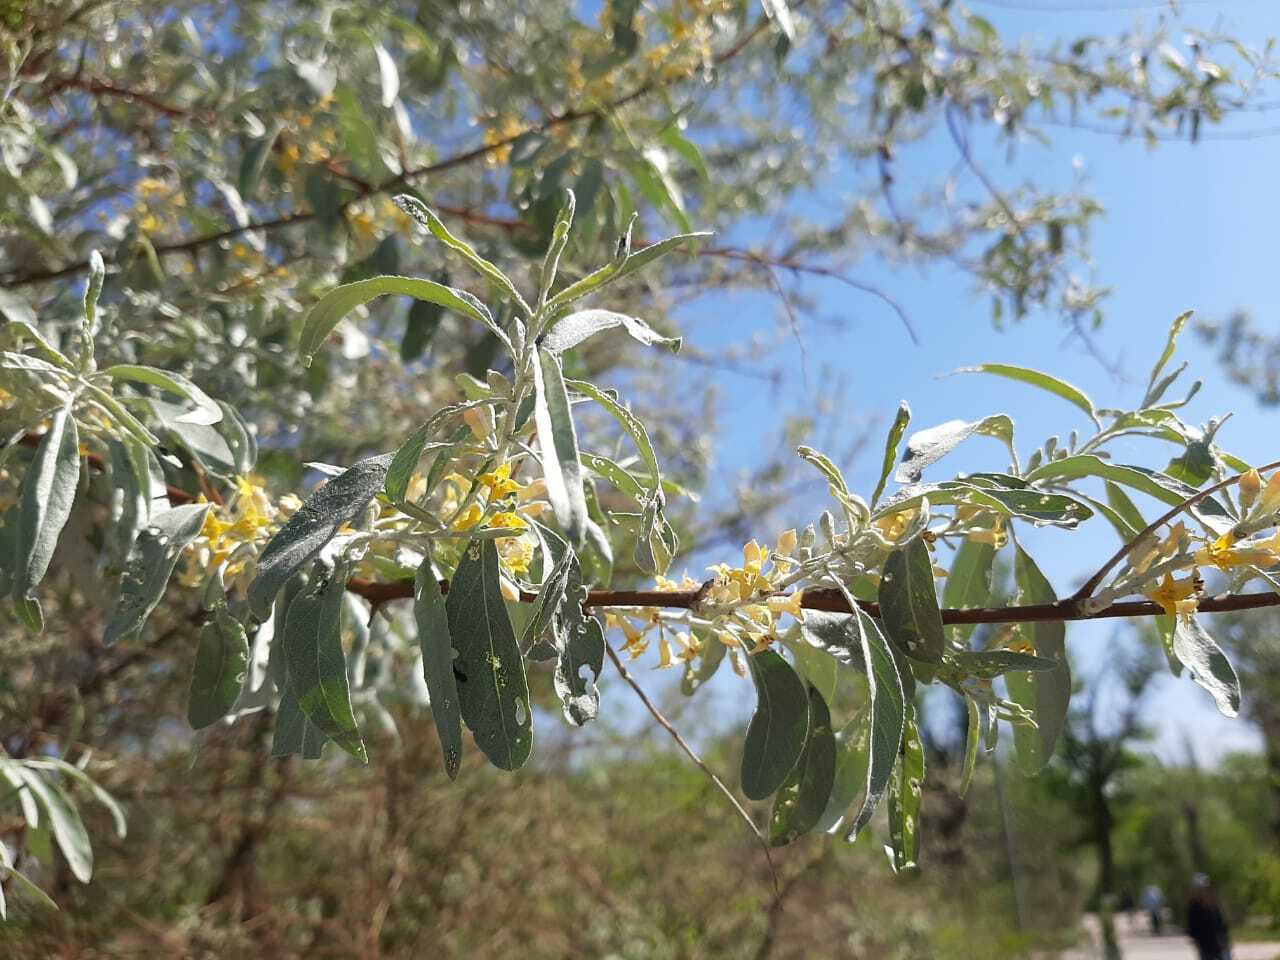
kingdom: Plantae
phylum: Tracheophyta
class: Magnoliopsida
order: Rosales
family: Elaeagnaceae
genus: Elaeagnus
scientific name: Elaeagnus angustifolia
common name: Russian olive
